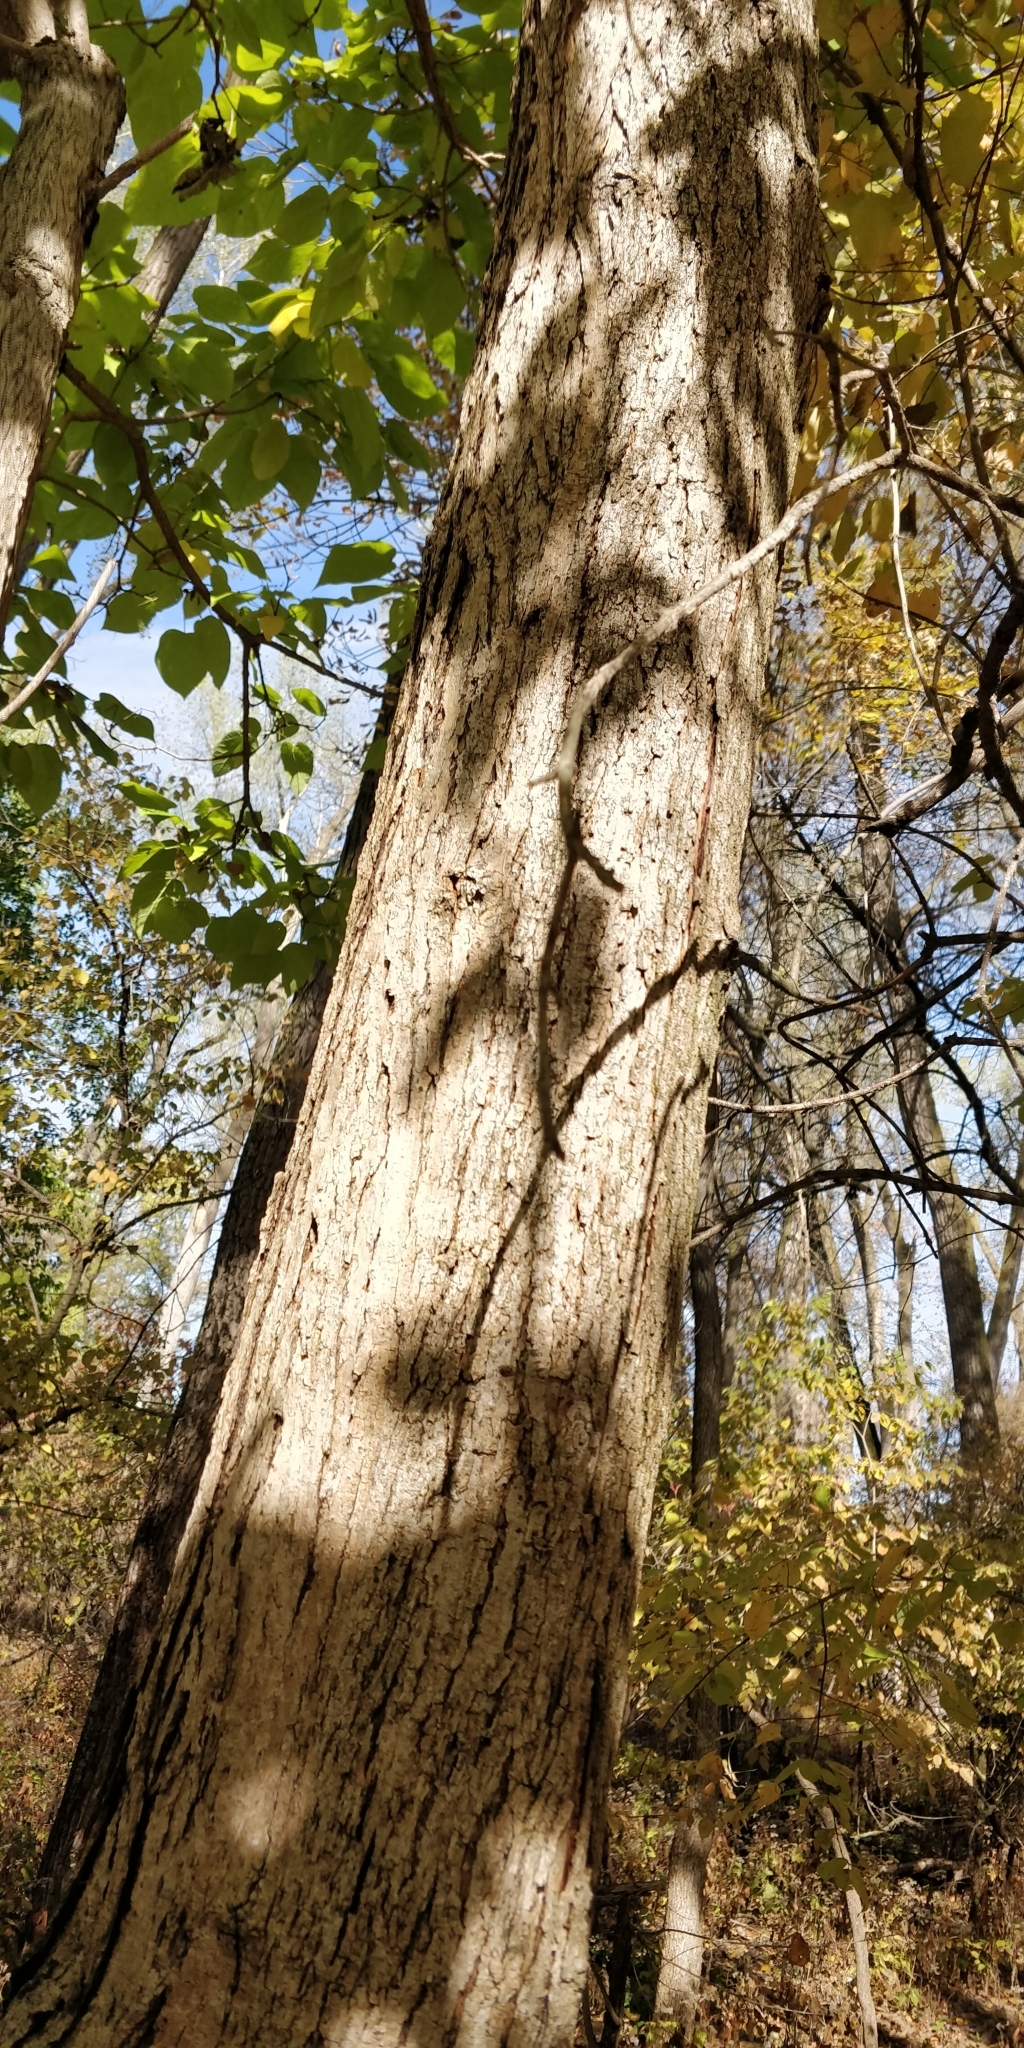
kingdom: Plantae
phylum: Tracheophyta
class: Magnoliopsida
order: Lamiales
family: Bignoniaceae
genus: Catalpa
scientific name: Catalpa speciosa
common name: Northern catalpa
